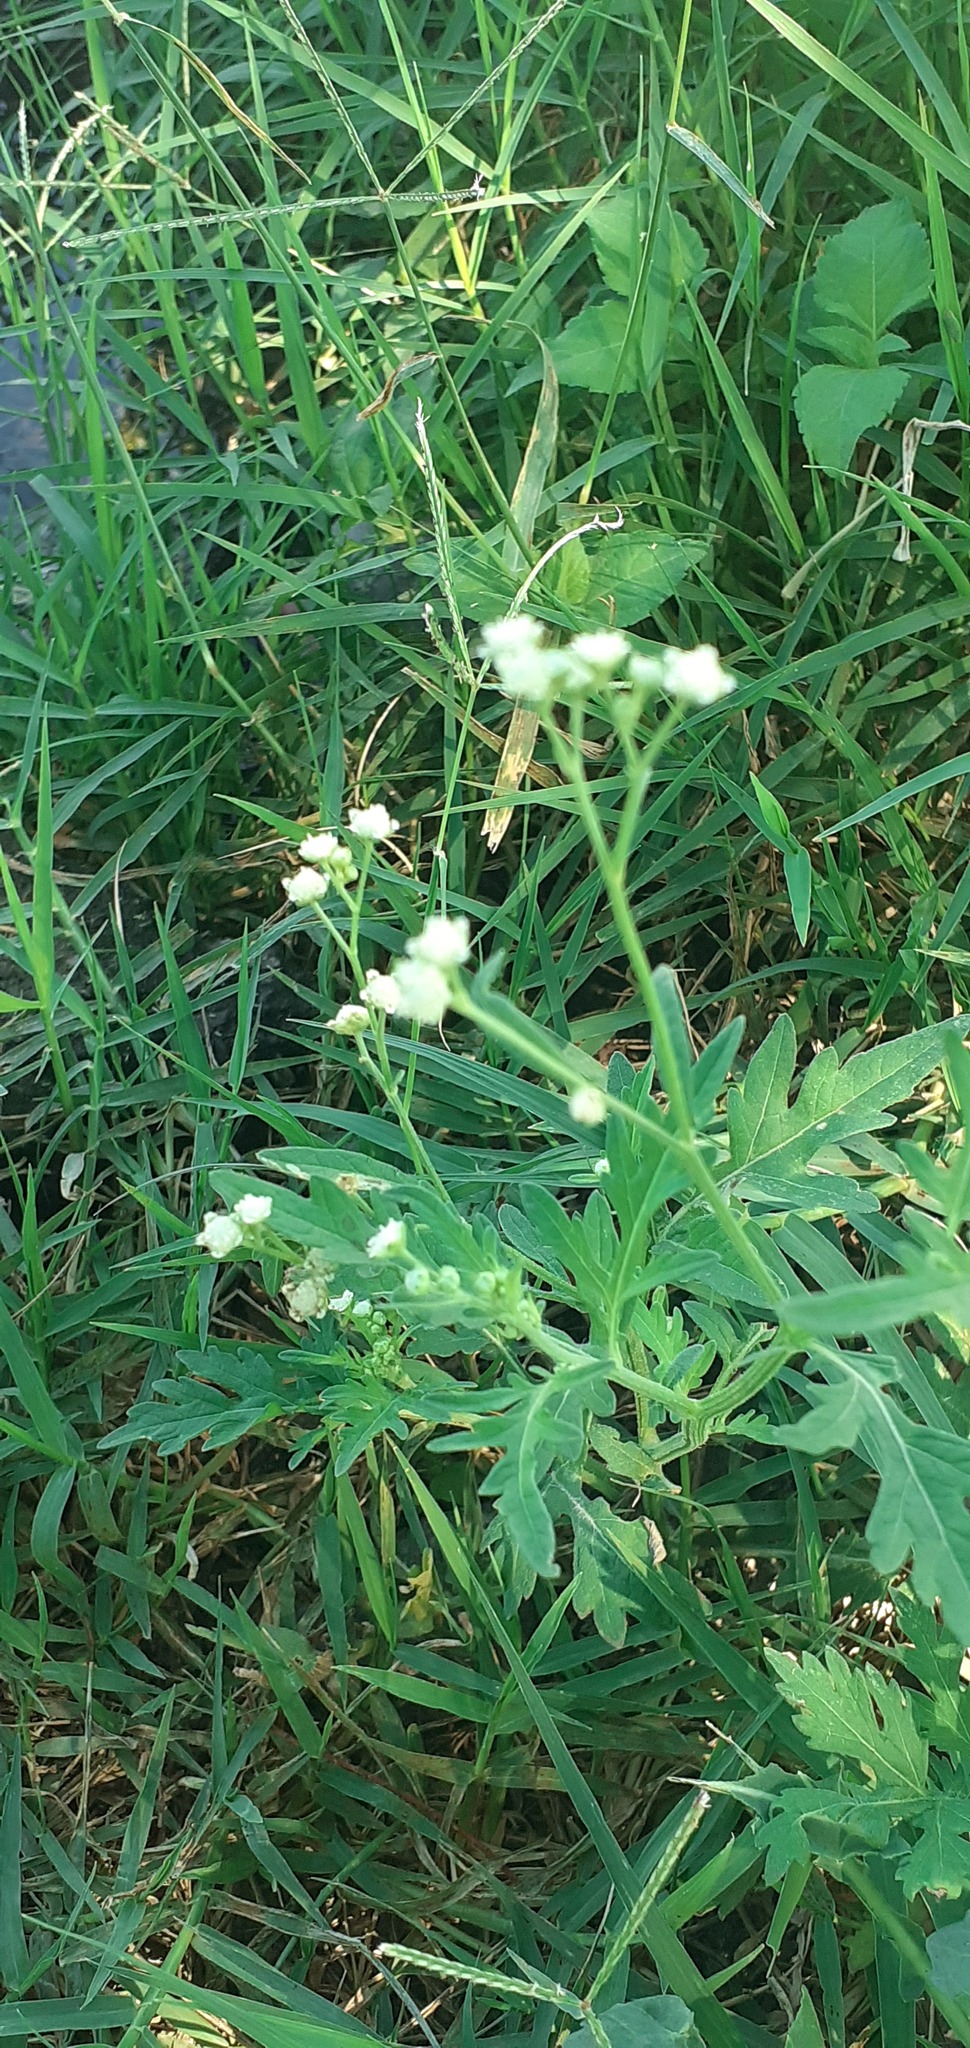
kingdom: Plantae
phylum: Tracheophyta
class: Magnoliopsida
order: Asterales
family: Asteraceae
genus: Parthenium
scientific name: Parthenium hysterophorus
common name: Santa maria feverfew
